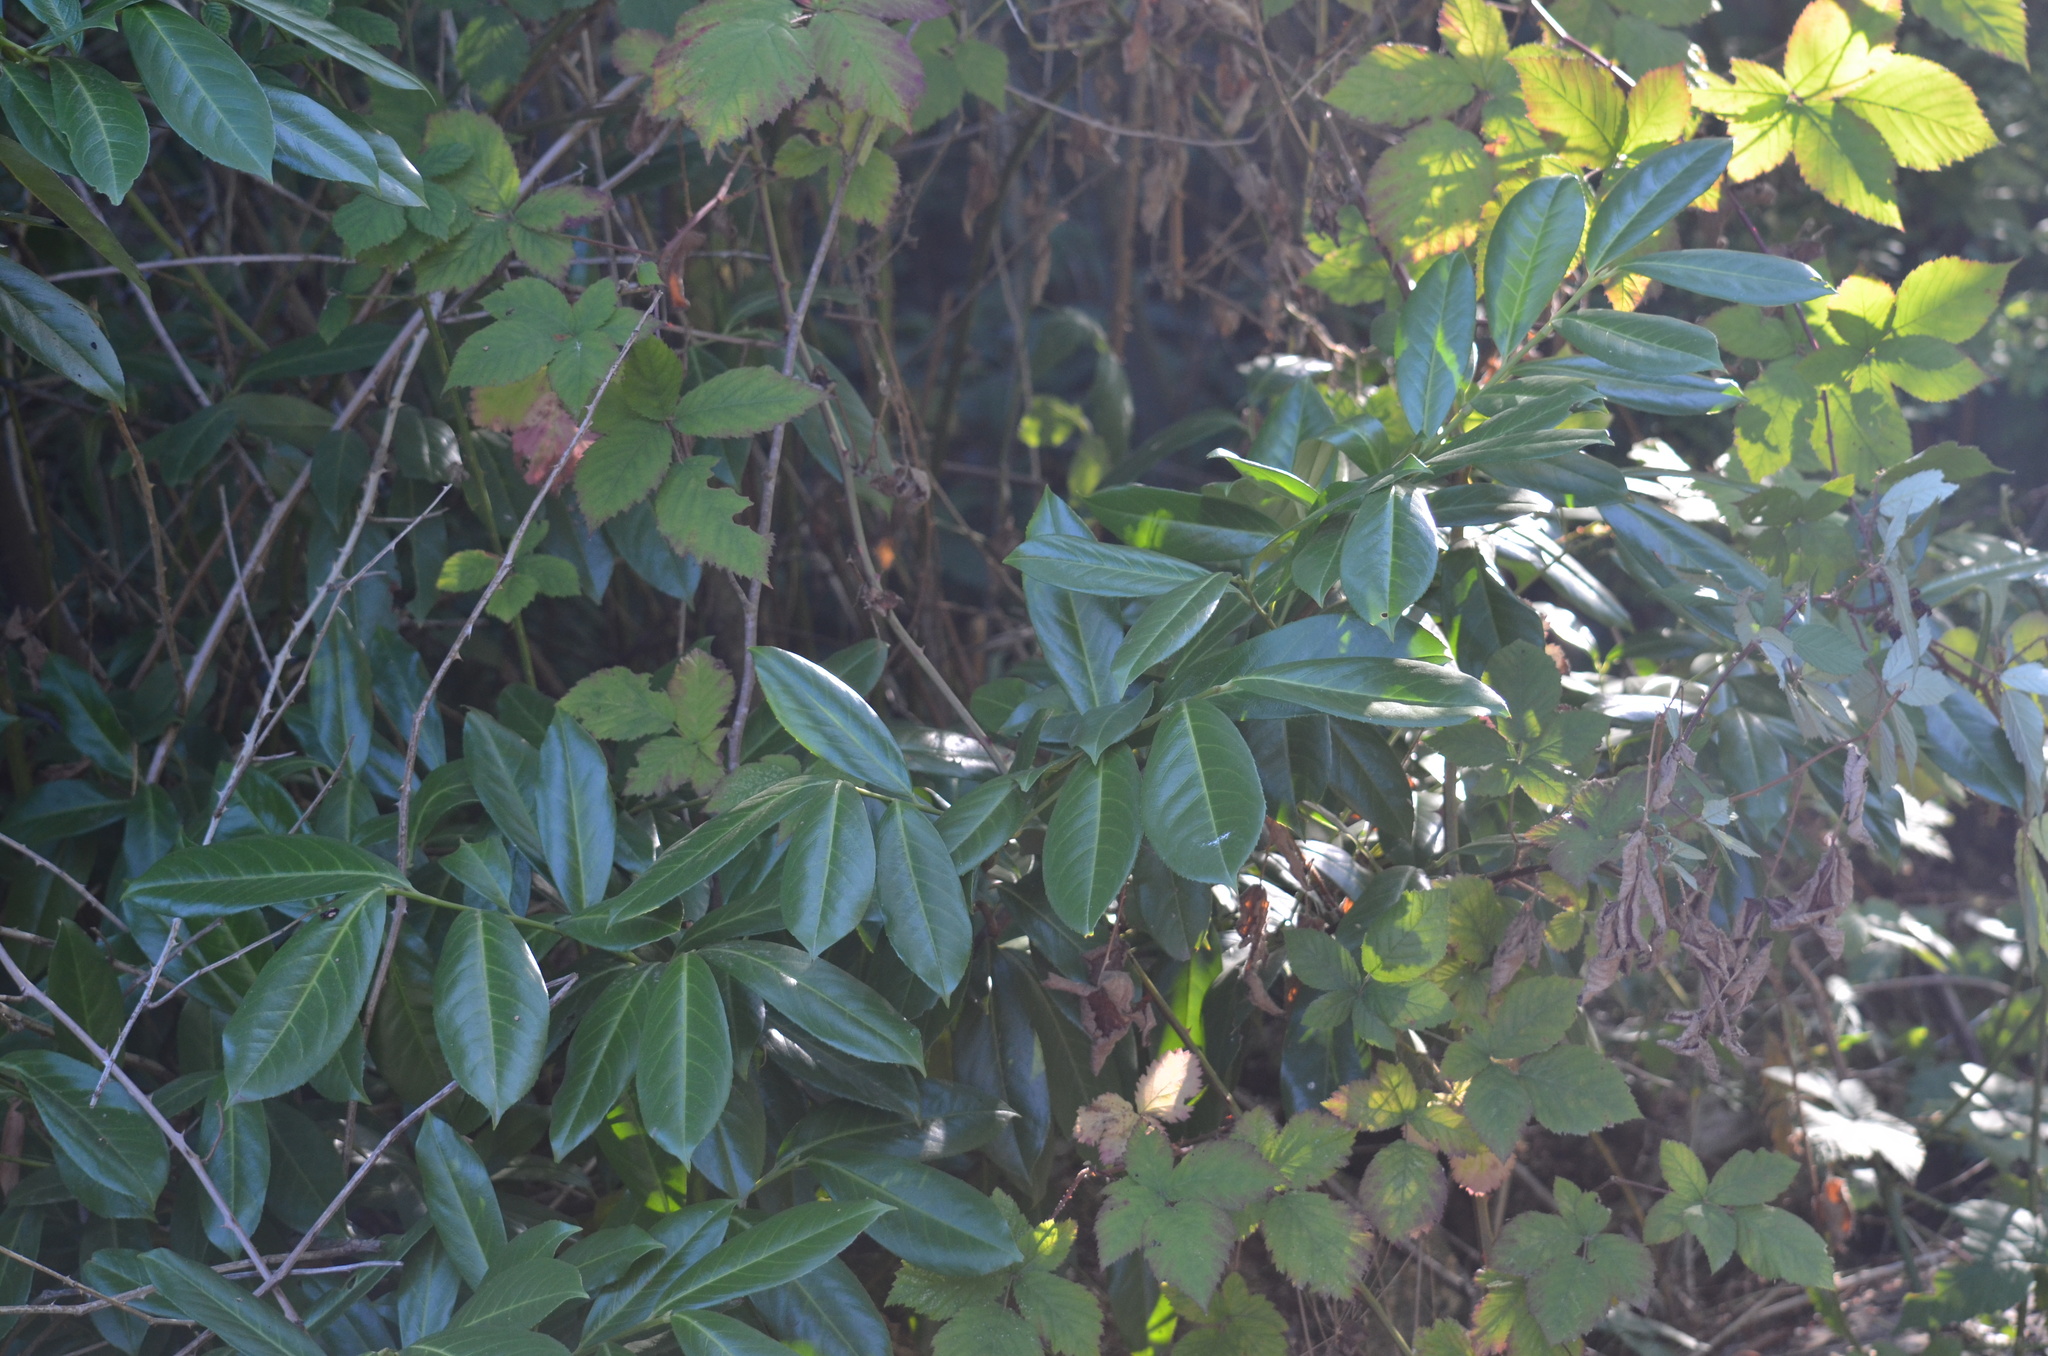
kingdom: Plantae
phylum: Tracheophyta
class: Magnoliopsida
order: Rosales
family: Rosaceae
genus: Prunus
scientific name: Prunus laurocerasus
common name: Cherry laurel
